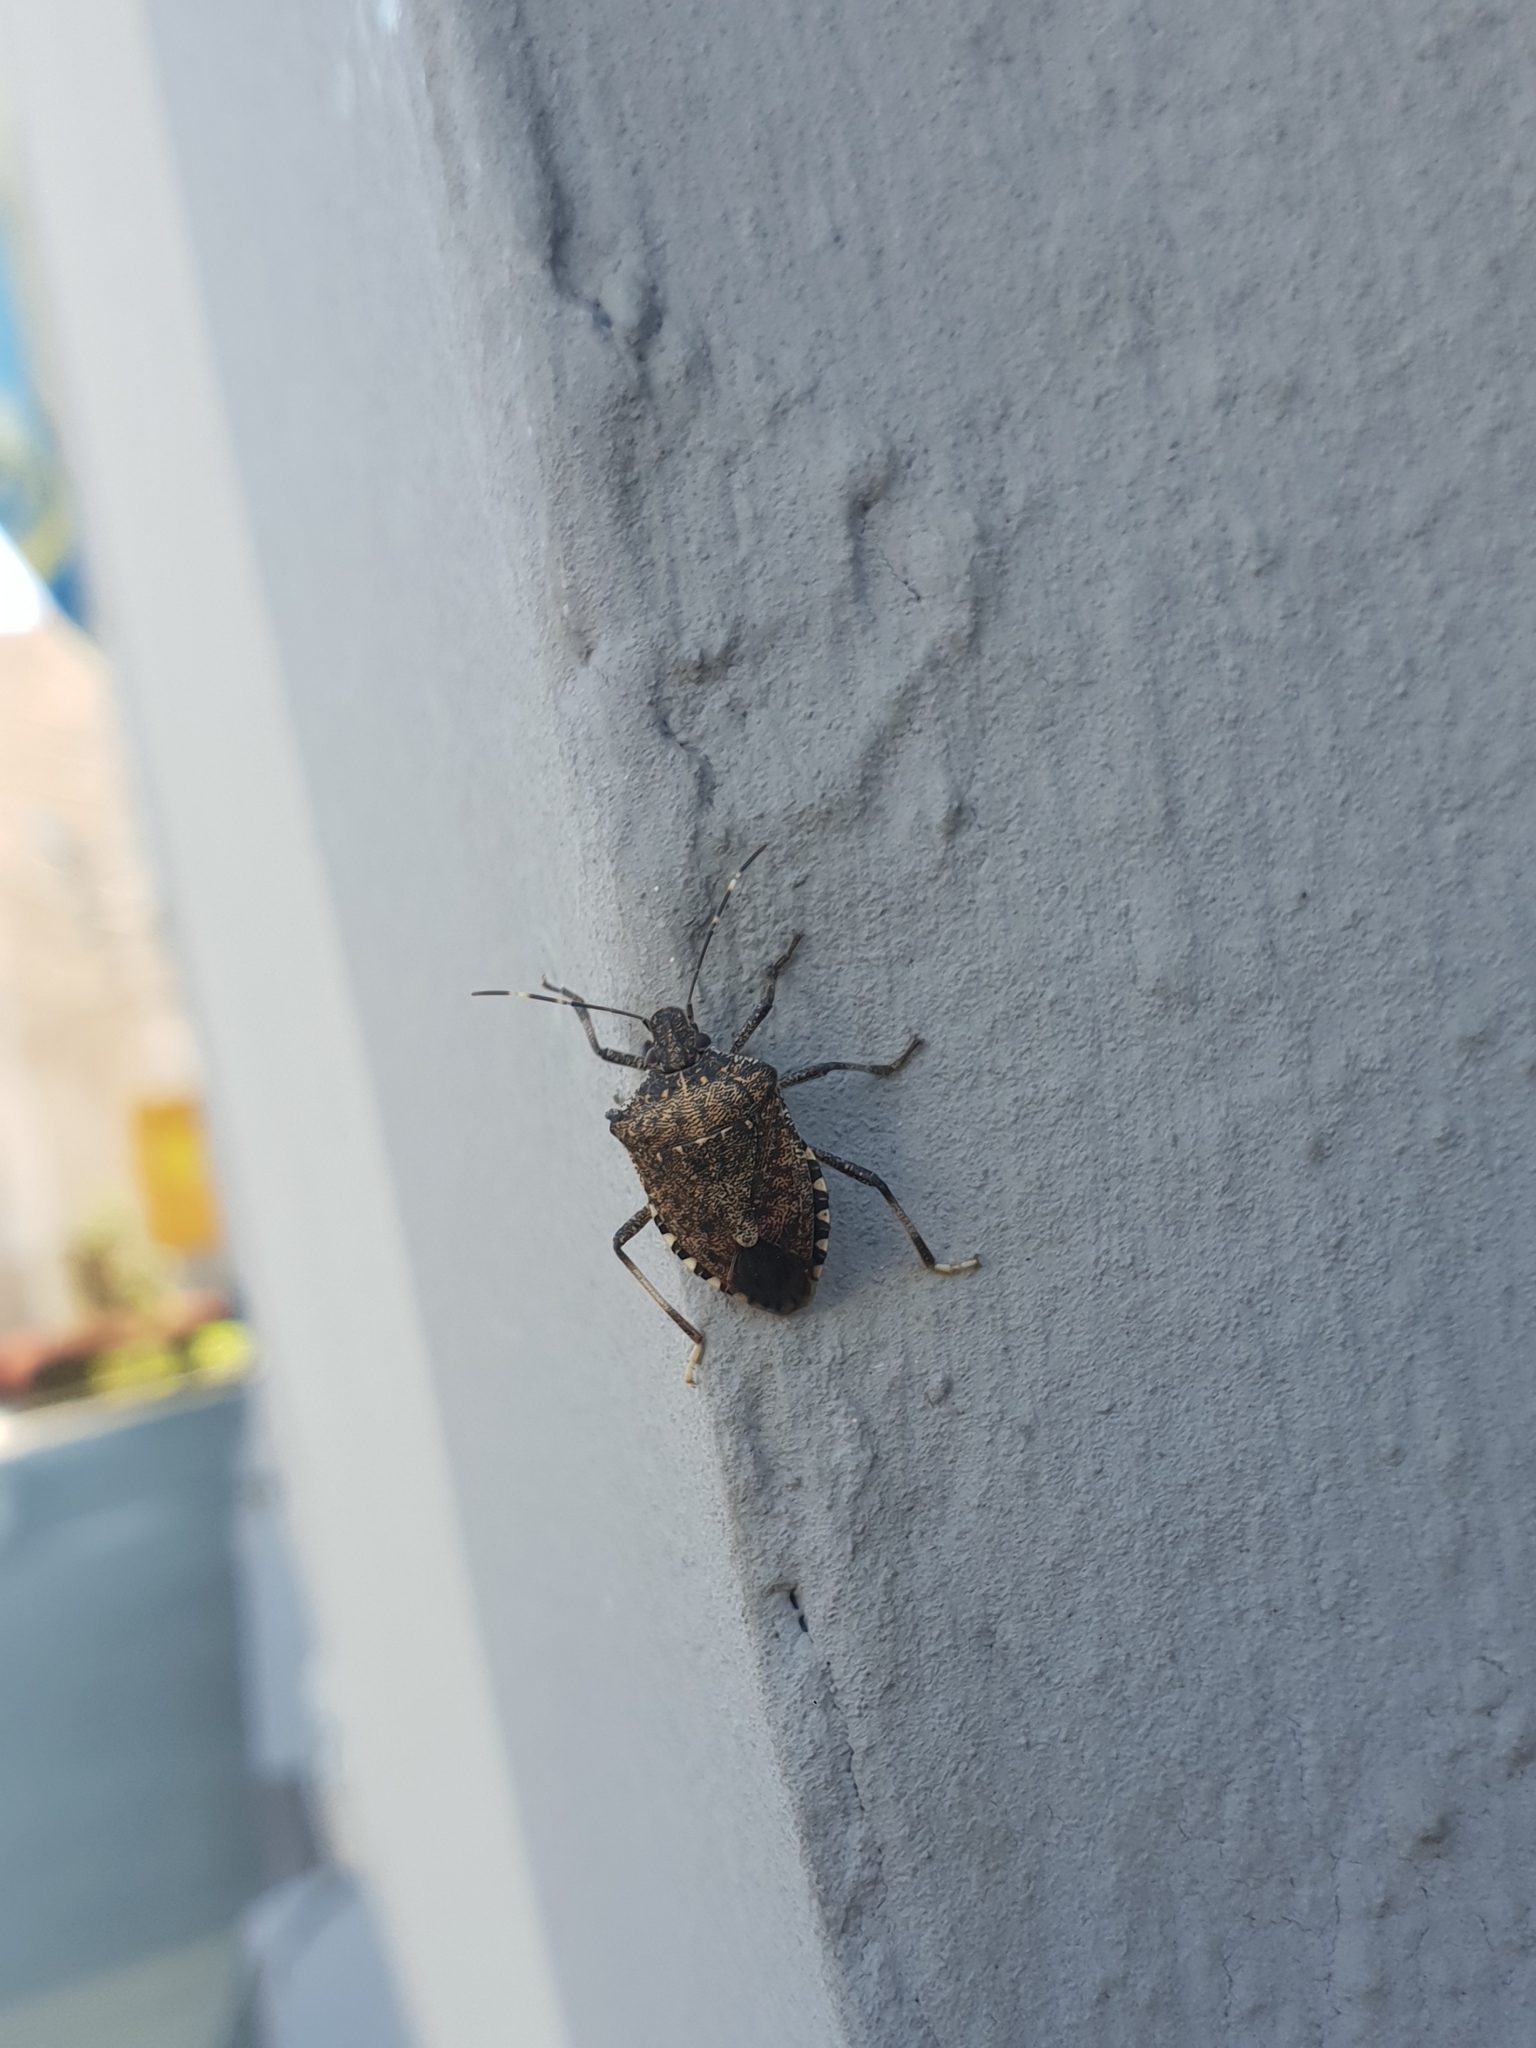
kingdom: Animalia
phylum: Arthropoda
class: Insecta
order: Hemiptera
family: Pentatomidae
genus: Halyomorpha
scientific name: Halyomorpha halys
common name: Brown marmorated stink bug
